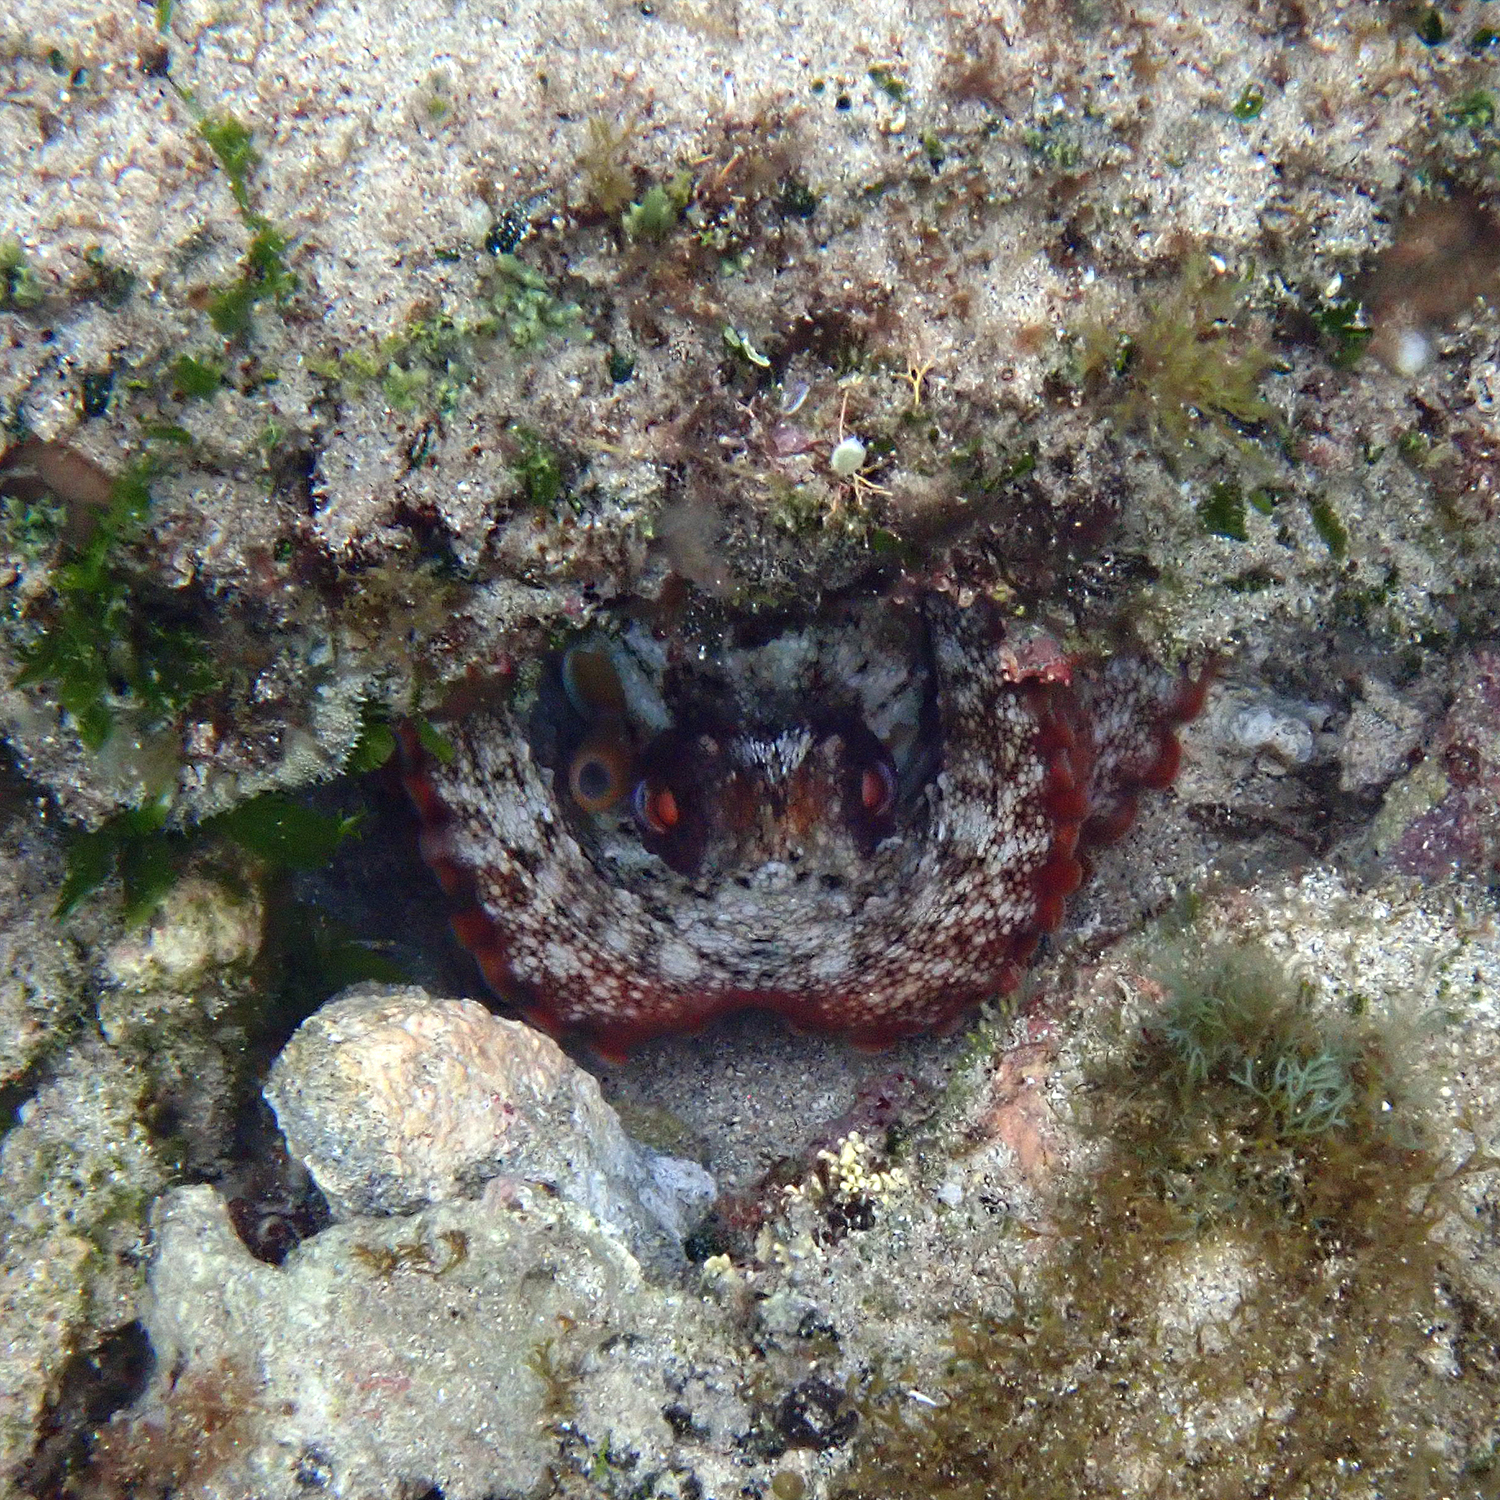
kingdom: Animalia
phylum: Mollusca
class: Cephalopoda
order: Octopoda
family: Octopodidae
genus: Octopus
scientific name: Octopus tetricus
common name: Sydney octopus
